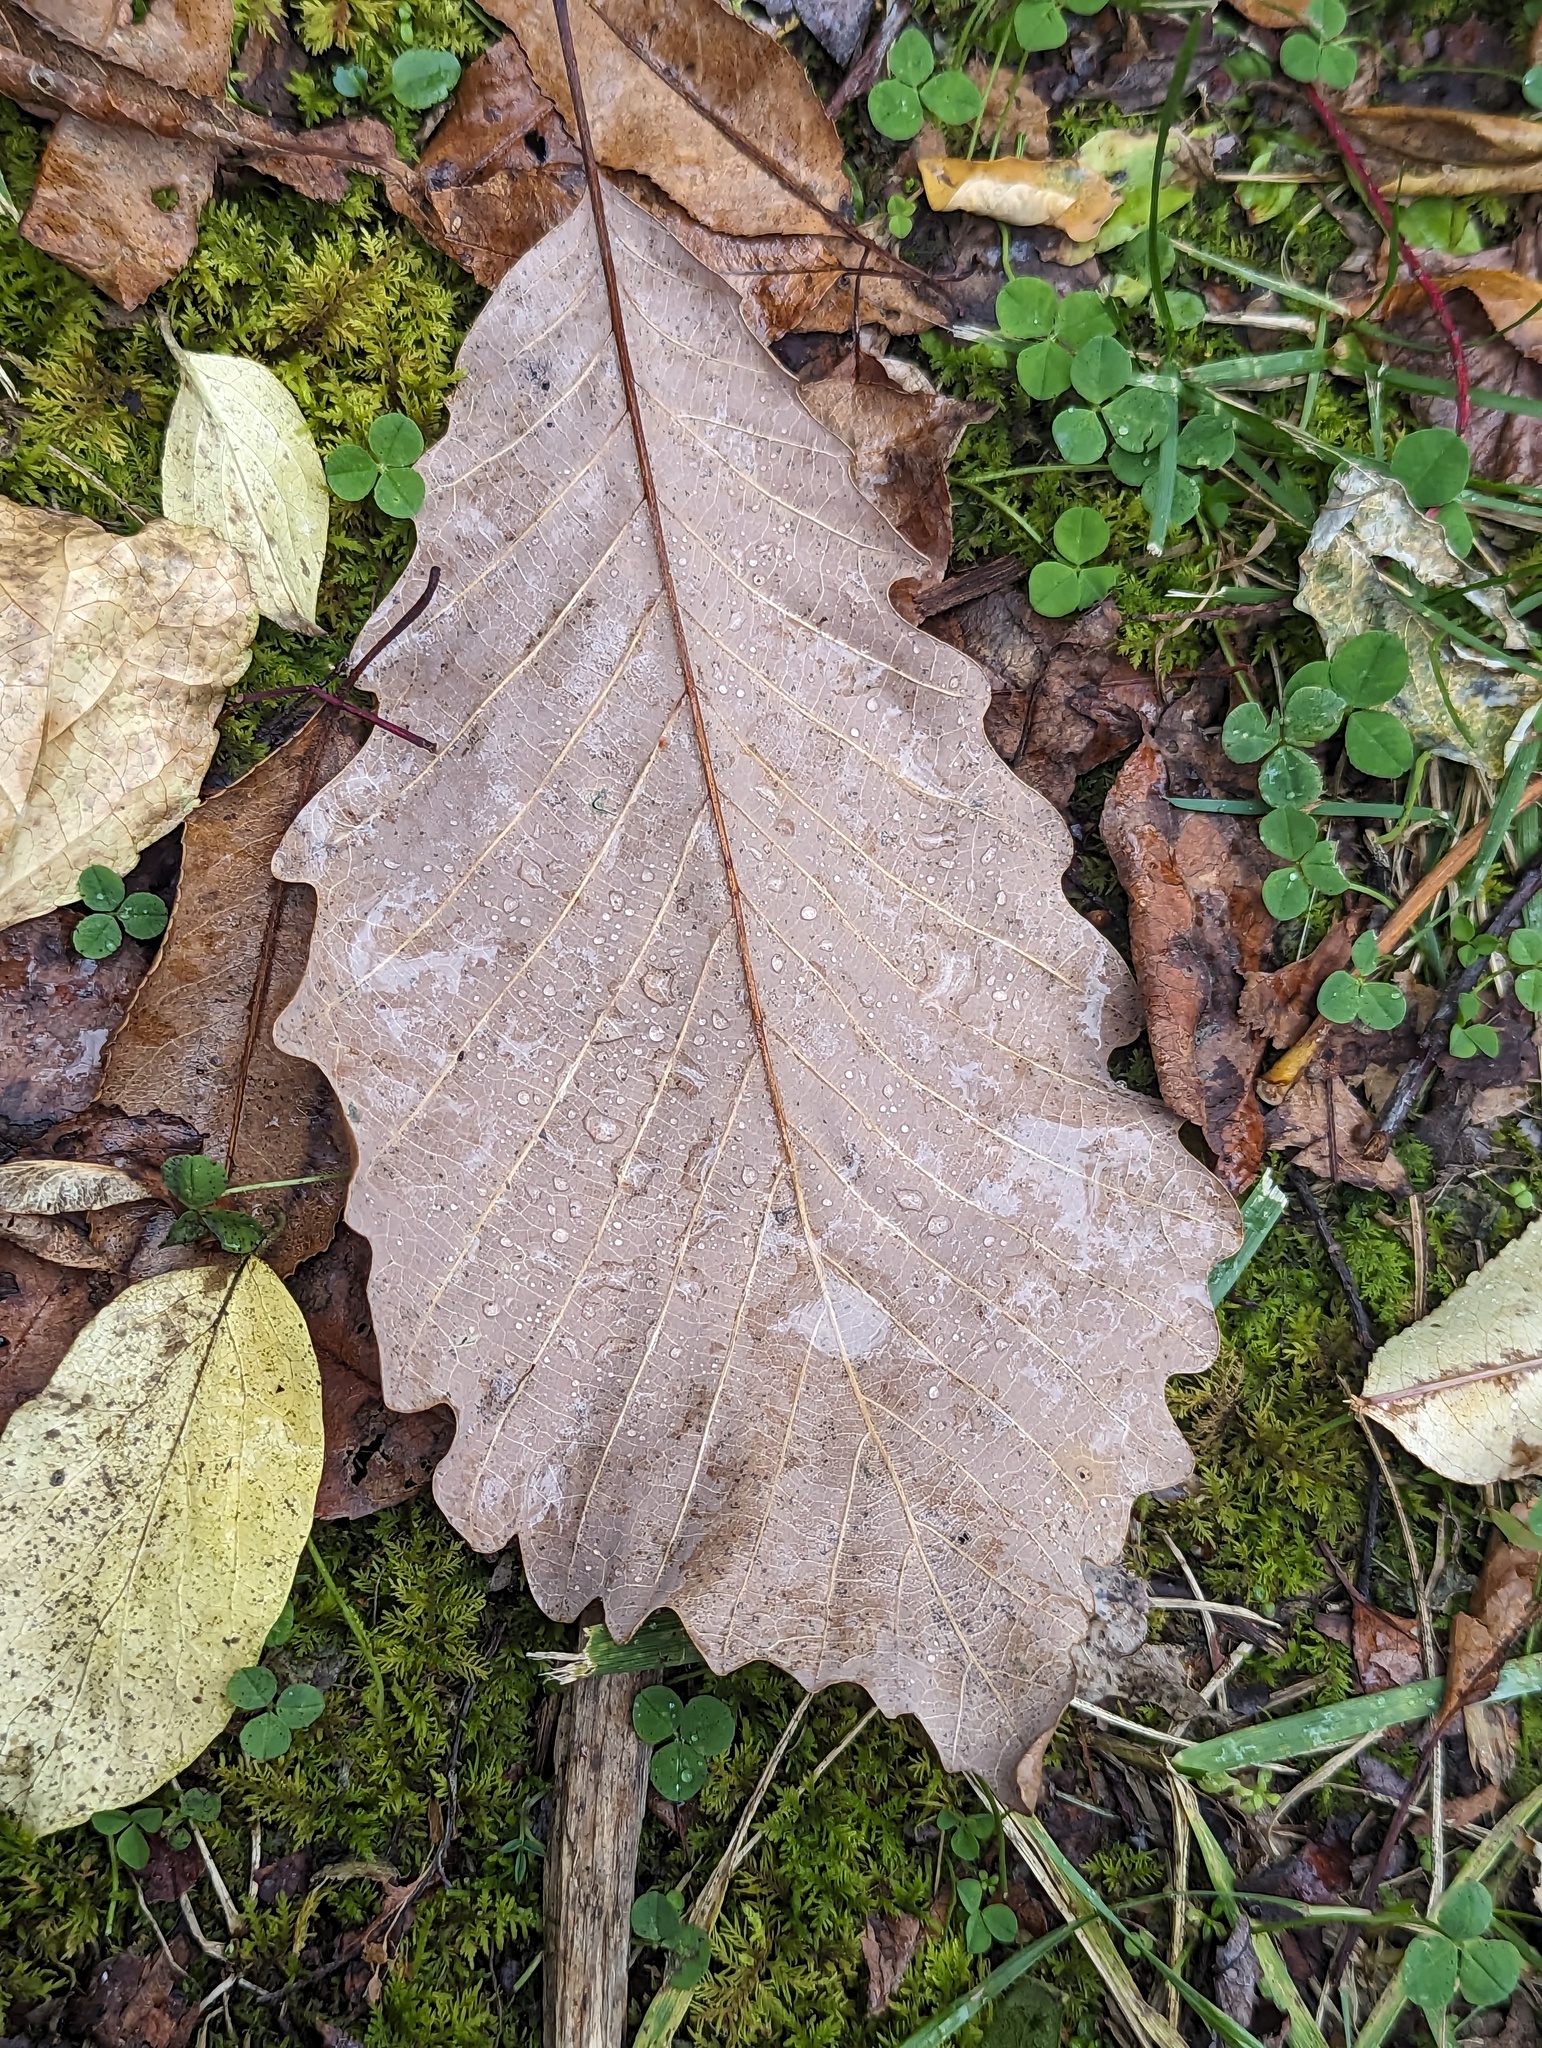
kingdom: Plantae
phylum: Tracheophyta
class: Magnoliopsida
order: Fagales
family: Fagaceae
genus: Quercus
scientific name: Quercus montana
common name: Chestnut oak
